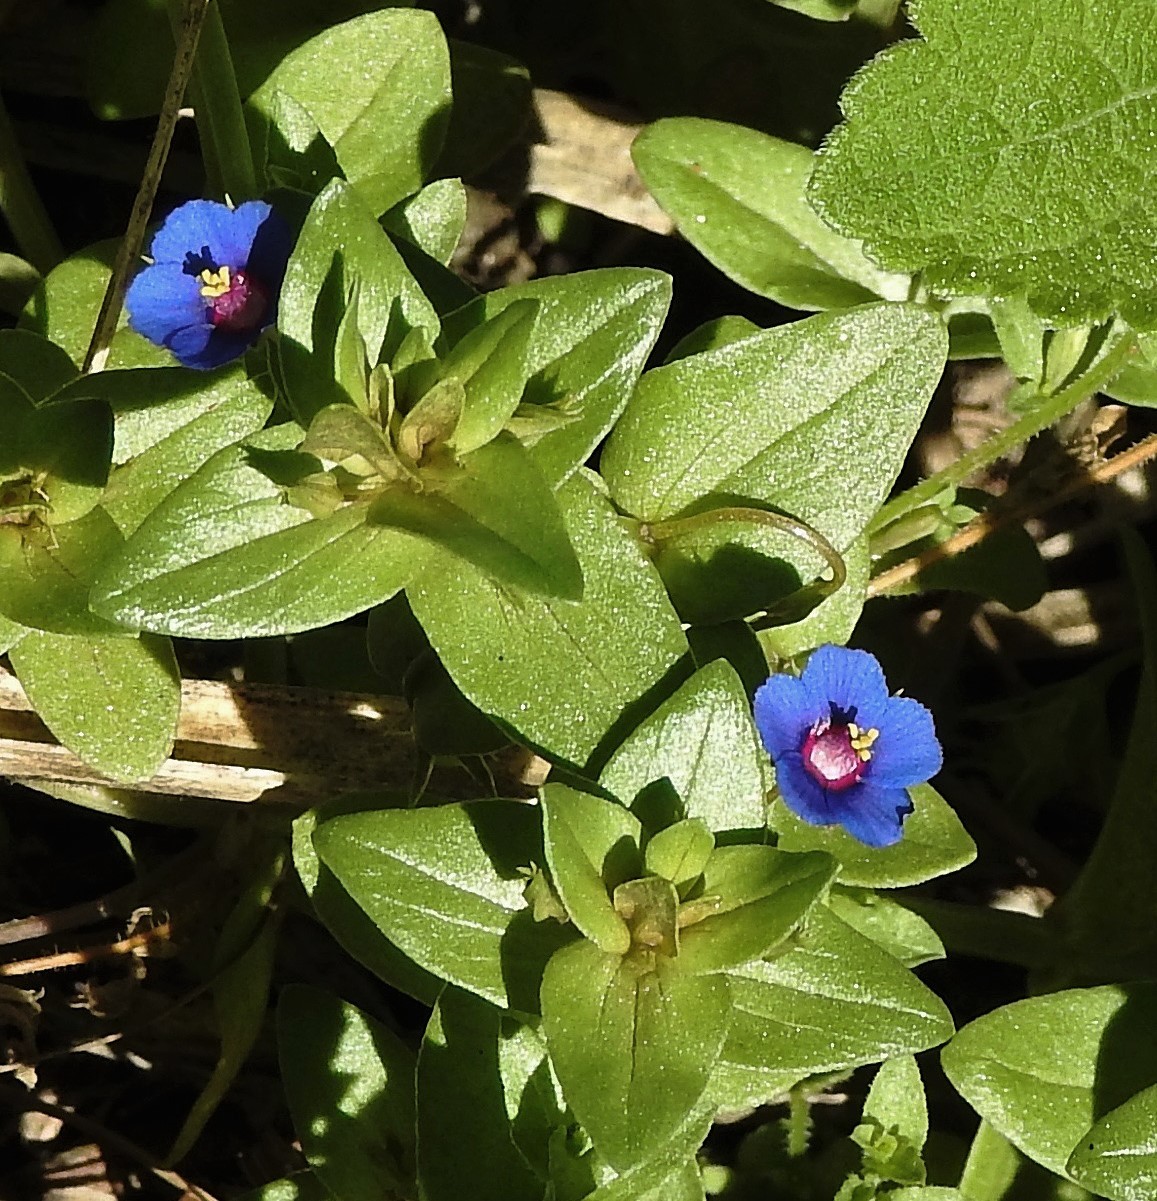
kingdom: Plantae
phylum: Tracheophyta
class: Magnoliopsida
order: Ericales
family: Primulaceae
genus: Lysimachia
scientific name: Lysimachia arvensis
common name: Scarlet pimpernel
